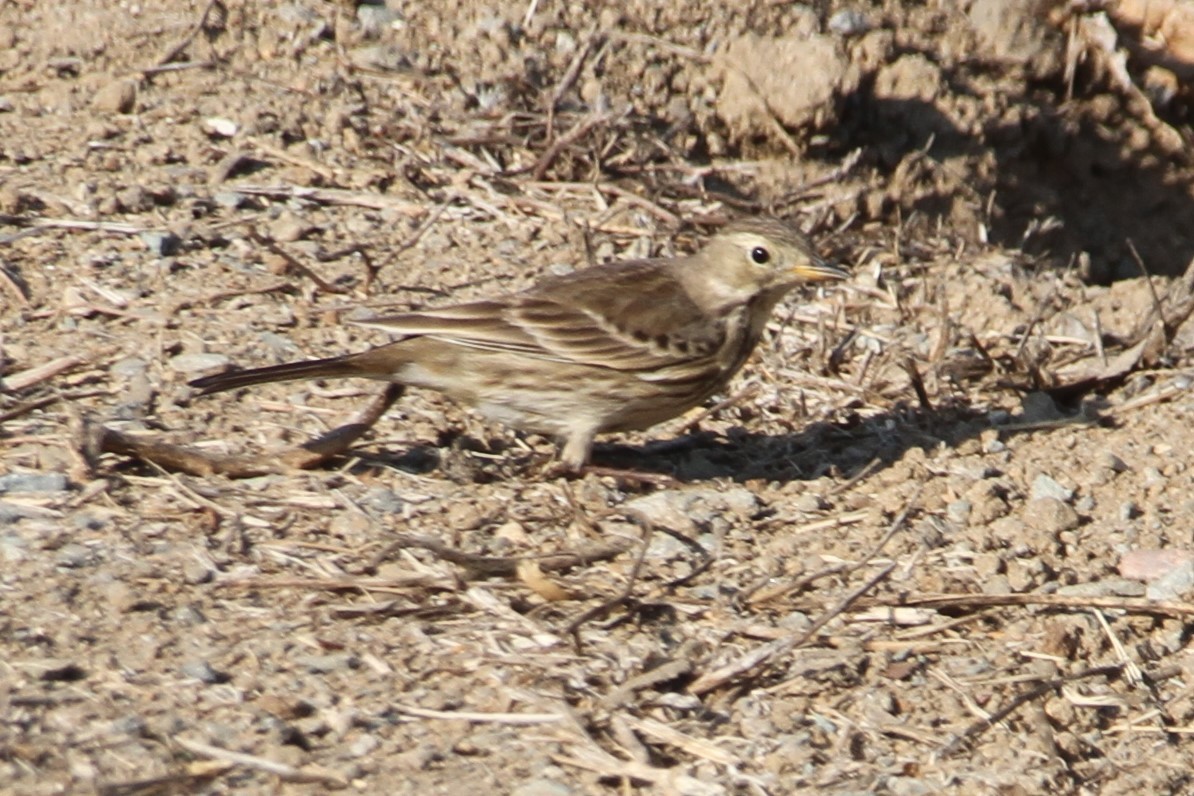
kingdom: Animalia
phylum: Chordata
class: Aves
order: Passeriformes
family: Motacillidae
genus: Anthus
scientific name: Anthus rubescens
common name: Buff-bellied pipit
